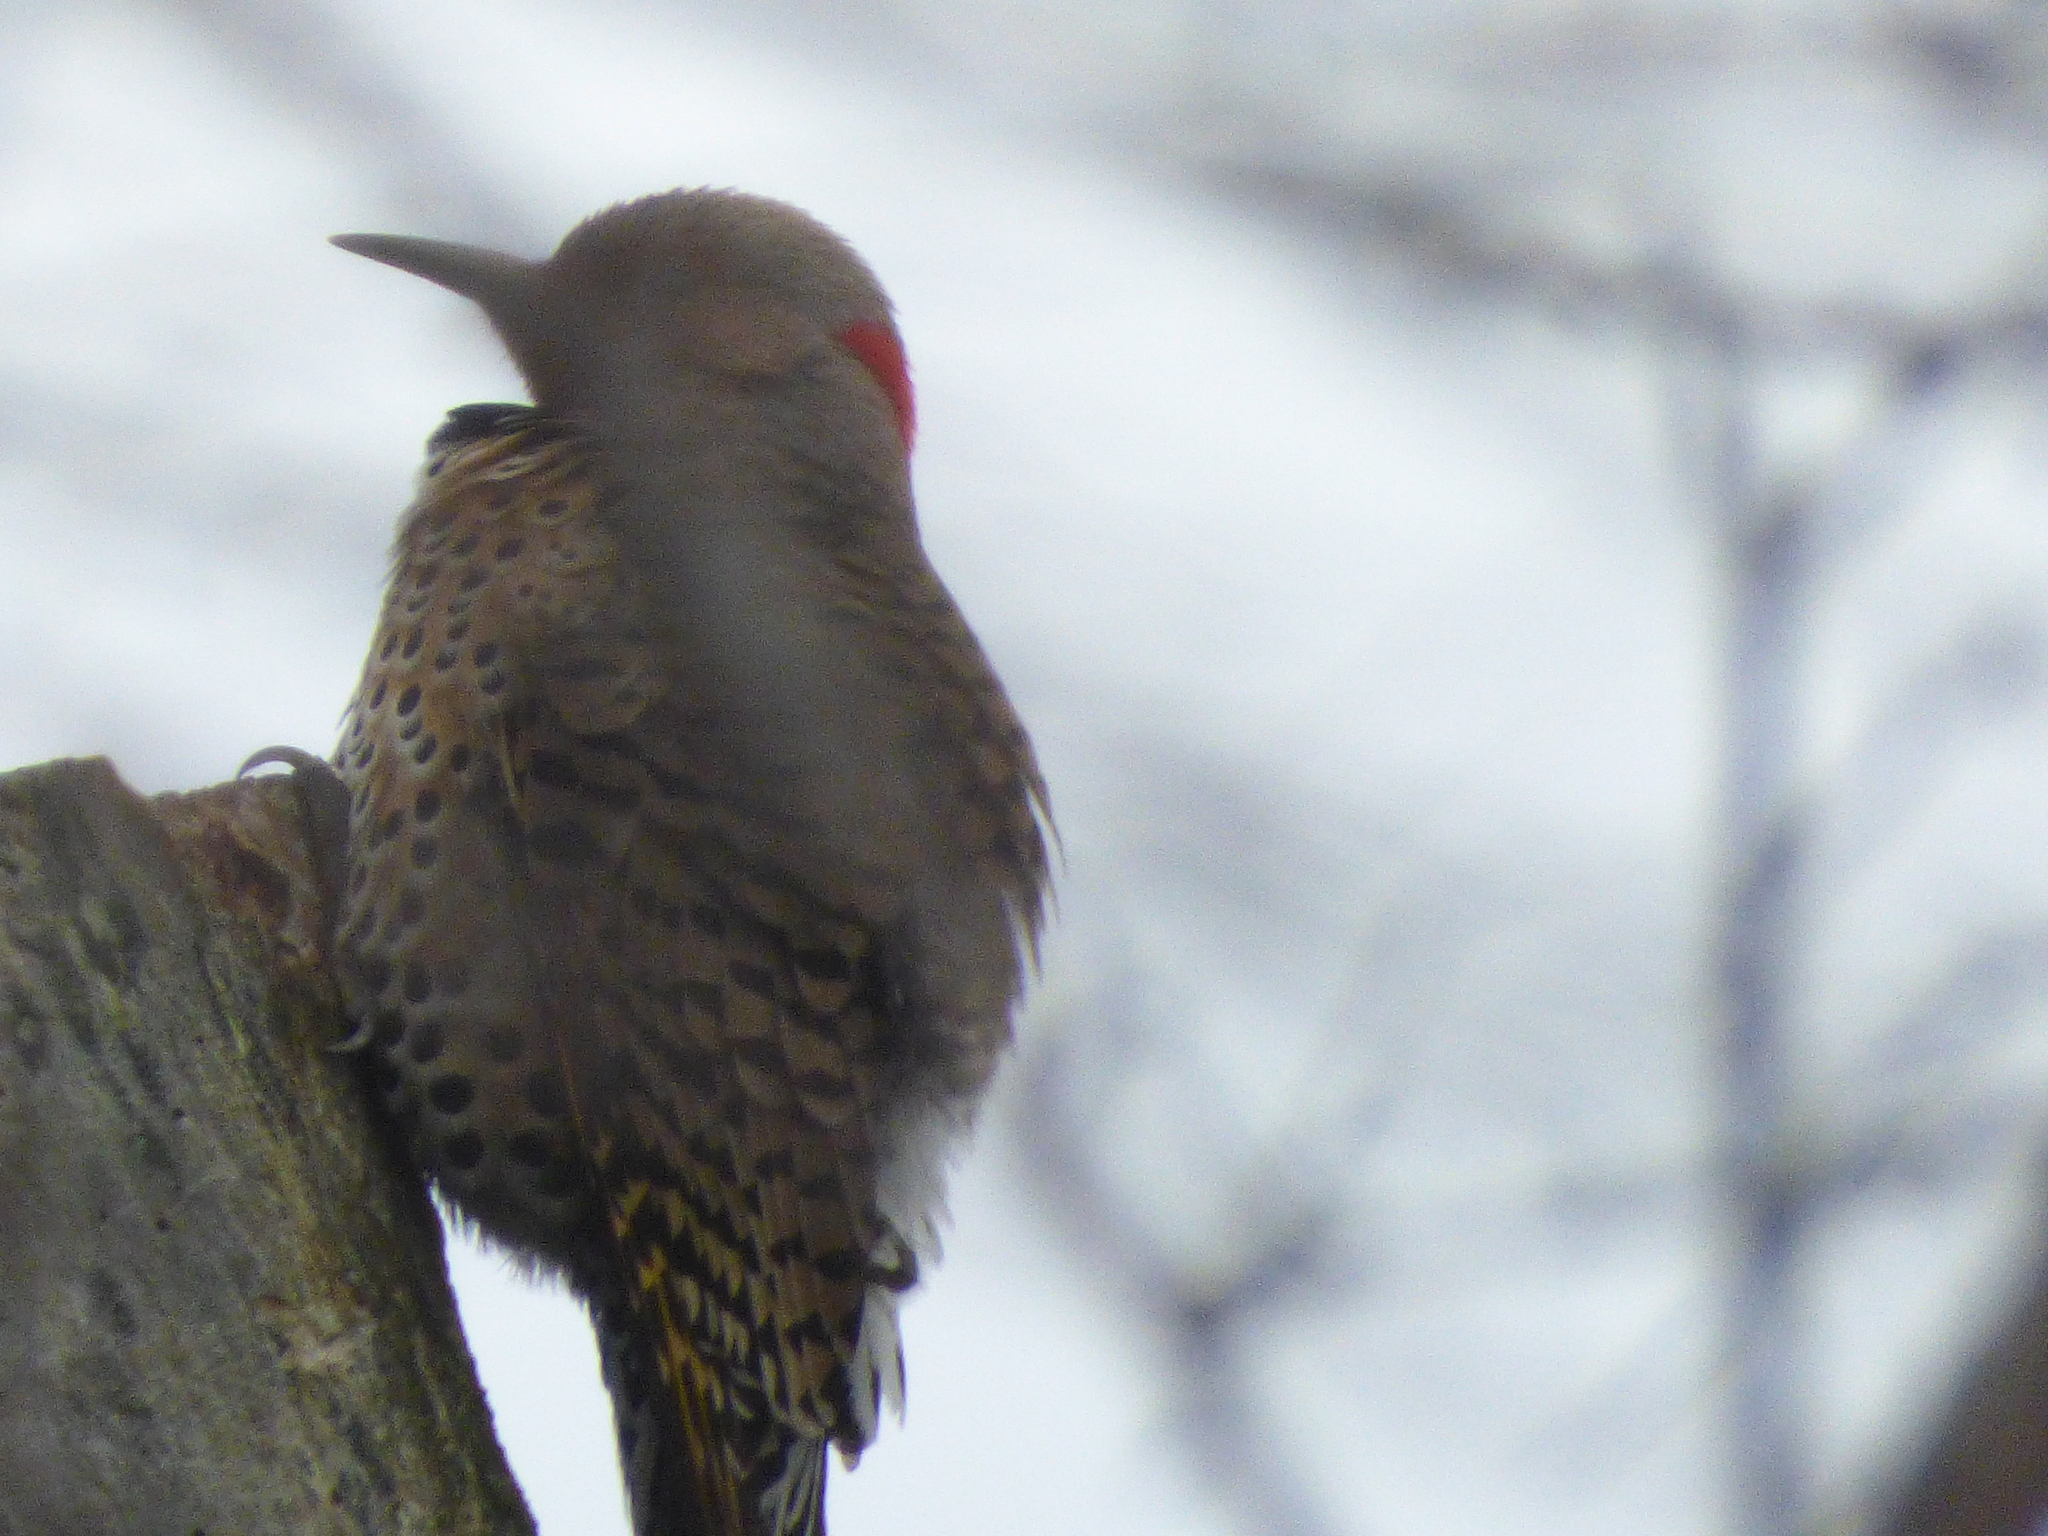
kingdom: Animalia
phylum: Chordata
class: Aves
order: Piciformes
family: Picidae
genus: Colaptes
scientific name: Colaptes auratus
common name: Northern flicker
